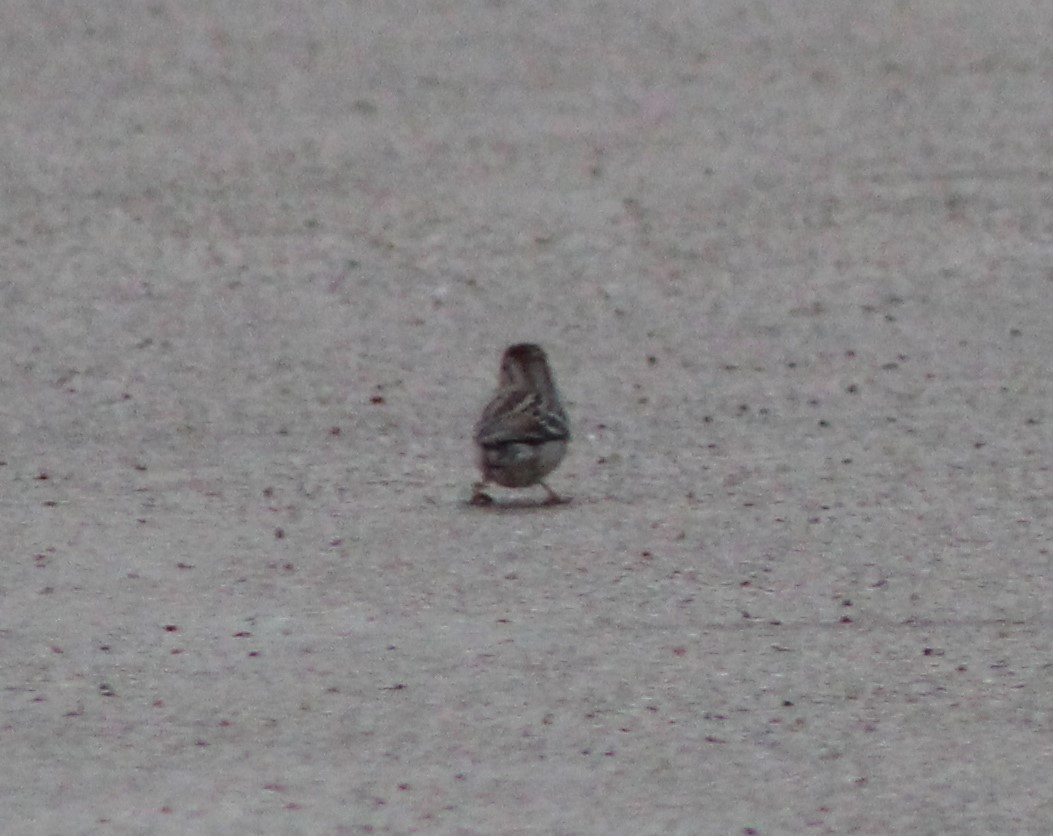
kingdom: Animalia
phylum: Chordata
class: Aves
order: Passeriformes
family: Passerellidae
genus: Spizella
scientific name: Spizella pusilla
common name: Field sparrow
